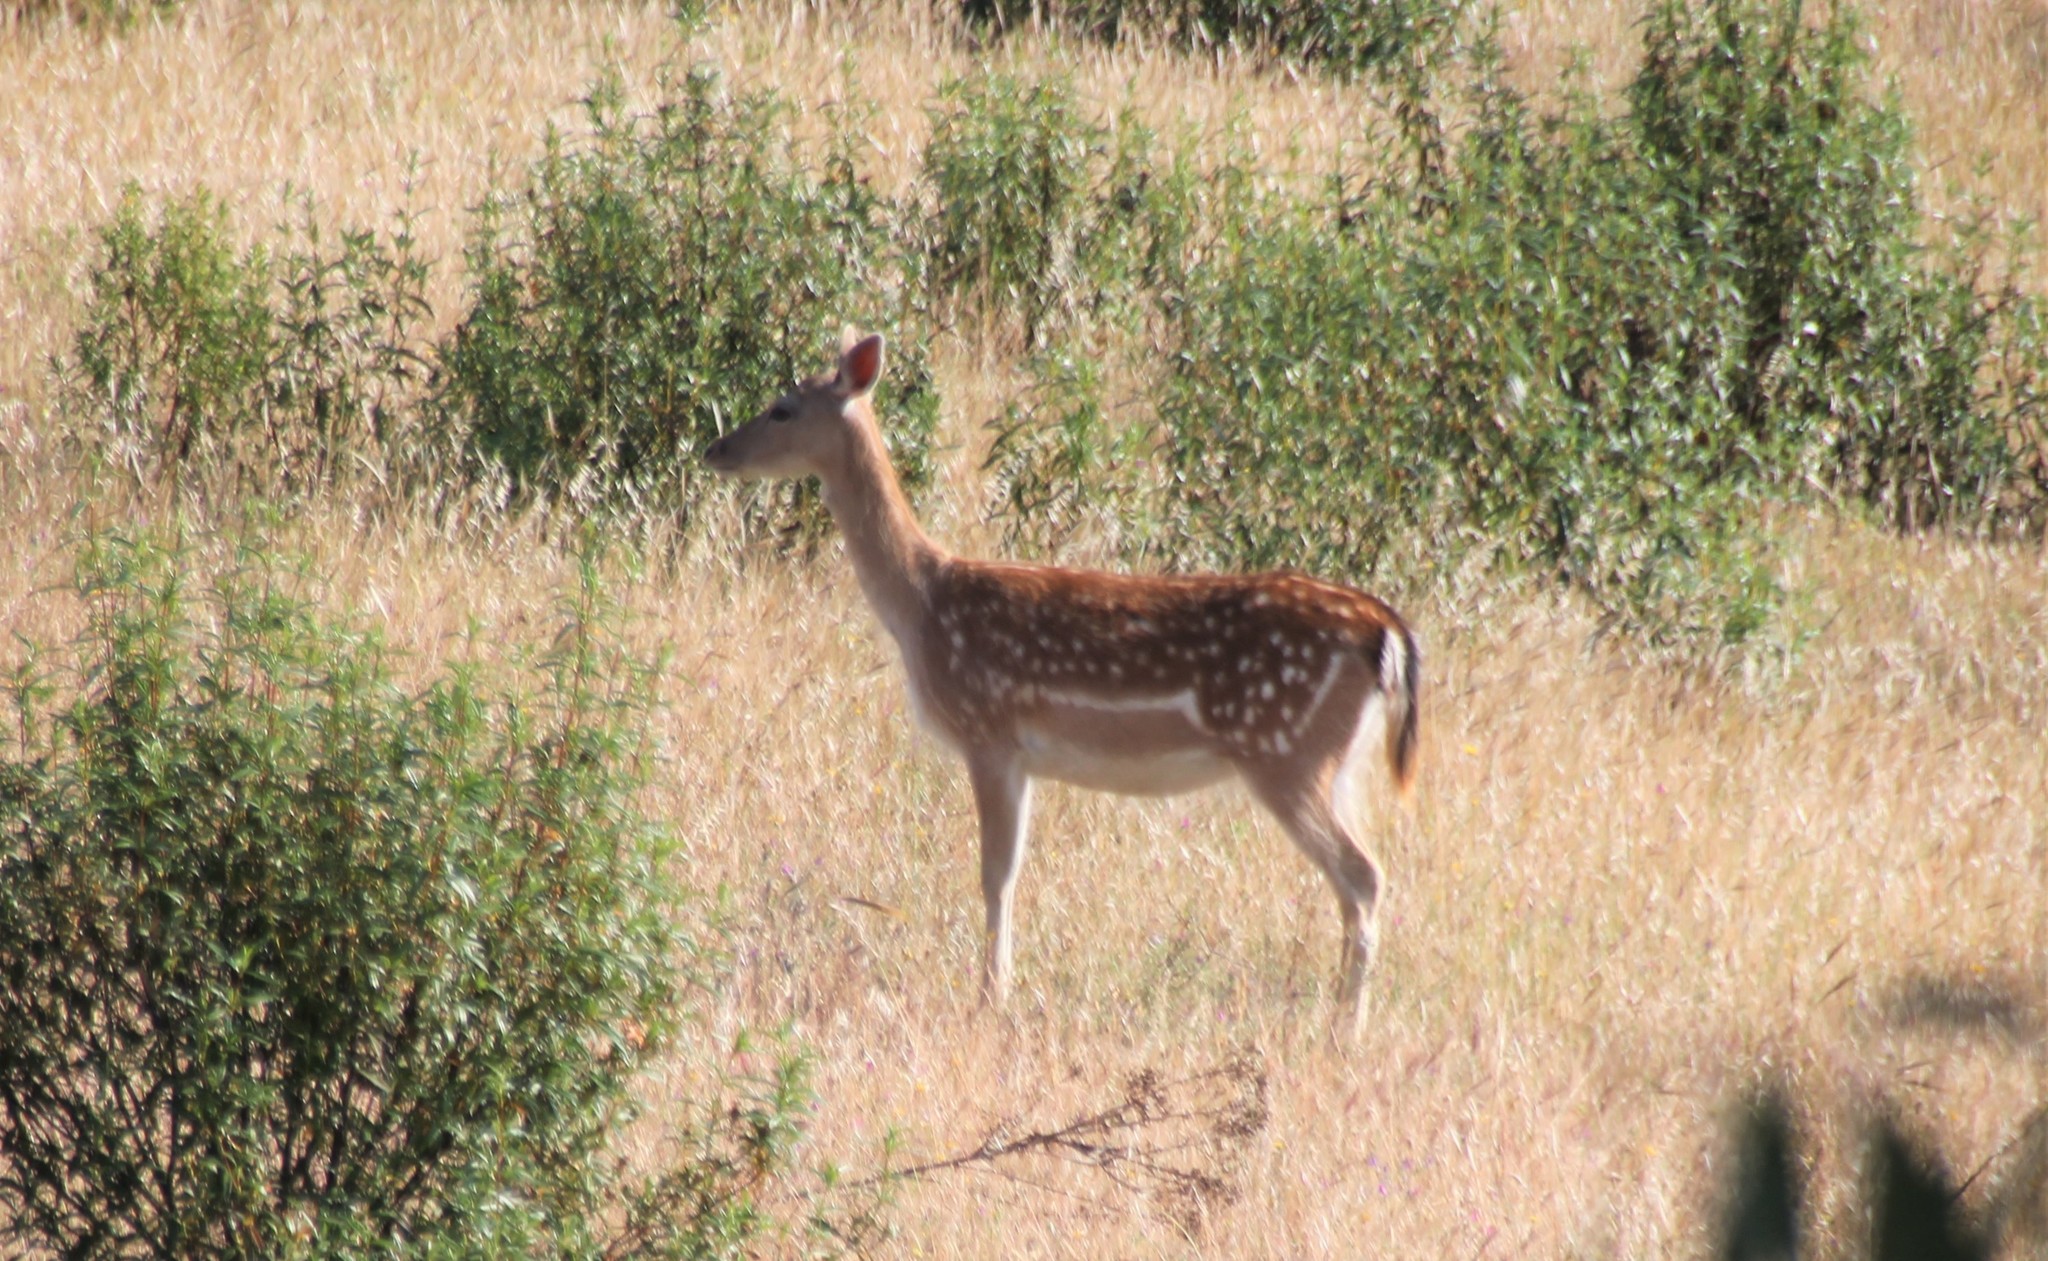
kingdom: Animalia
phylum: Chordata
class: Mammalia
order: Artiodactyla
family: Cervidae
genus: Dama
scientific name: Dama dama
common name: Fallow deer
